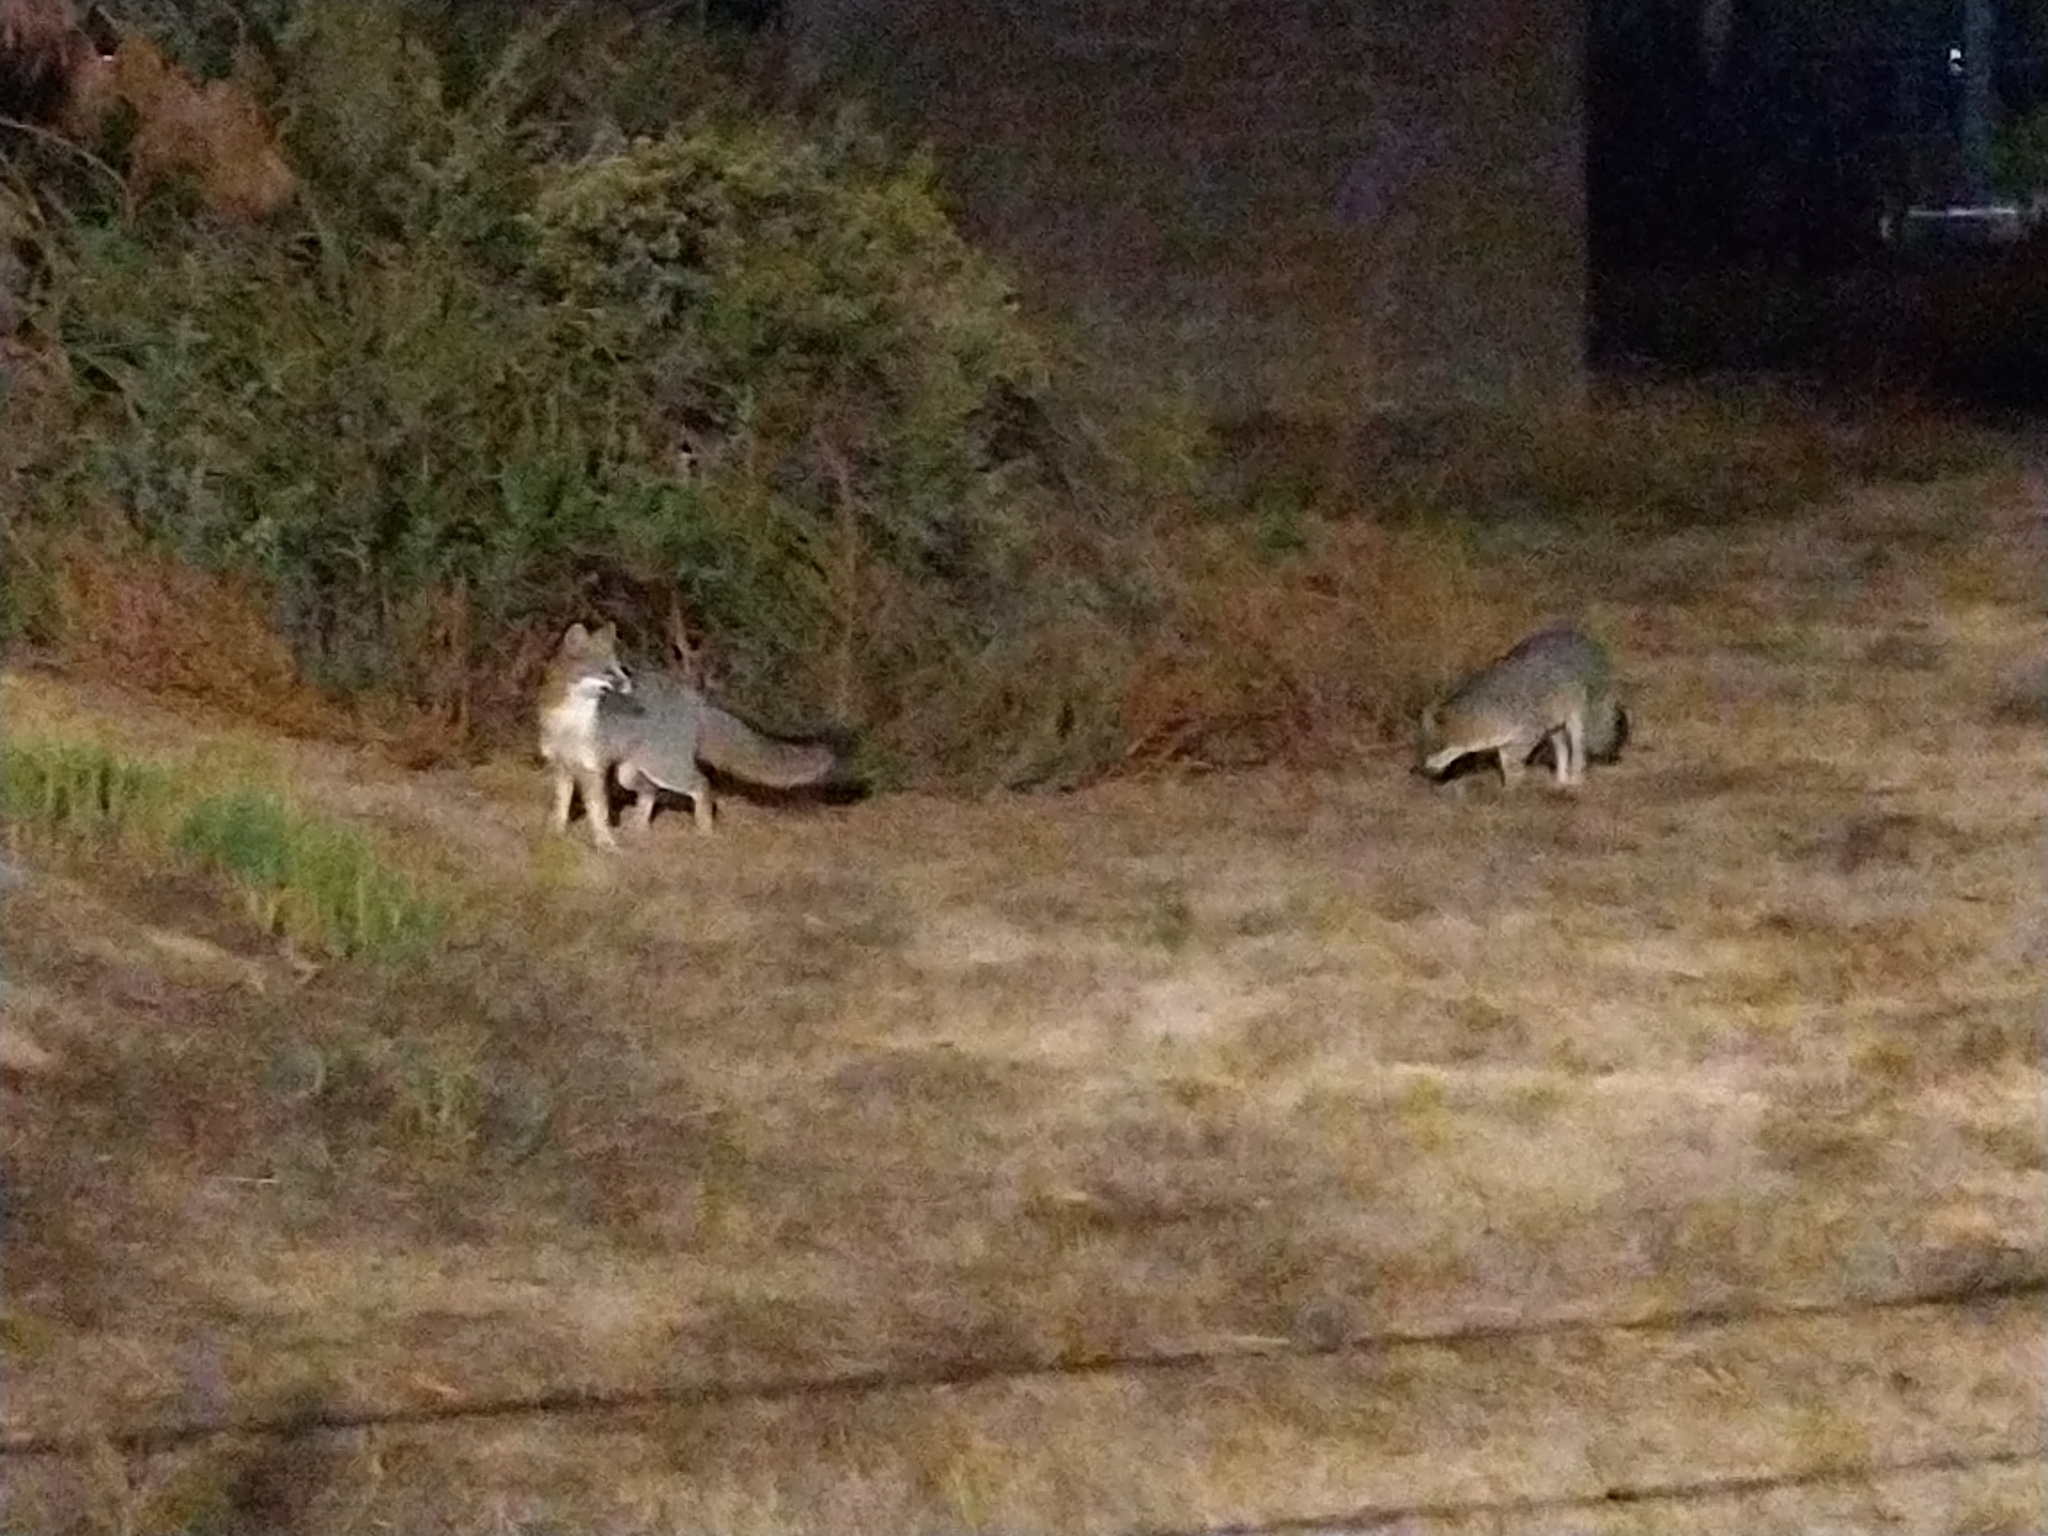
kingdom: Animalia
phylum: Chordata
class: Mammalia
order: Carnivora
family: Canidae
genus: Urocyon
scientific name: Urocyon cinereoargenteus
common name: Gray fox
